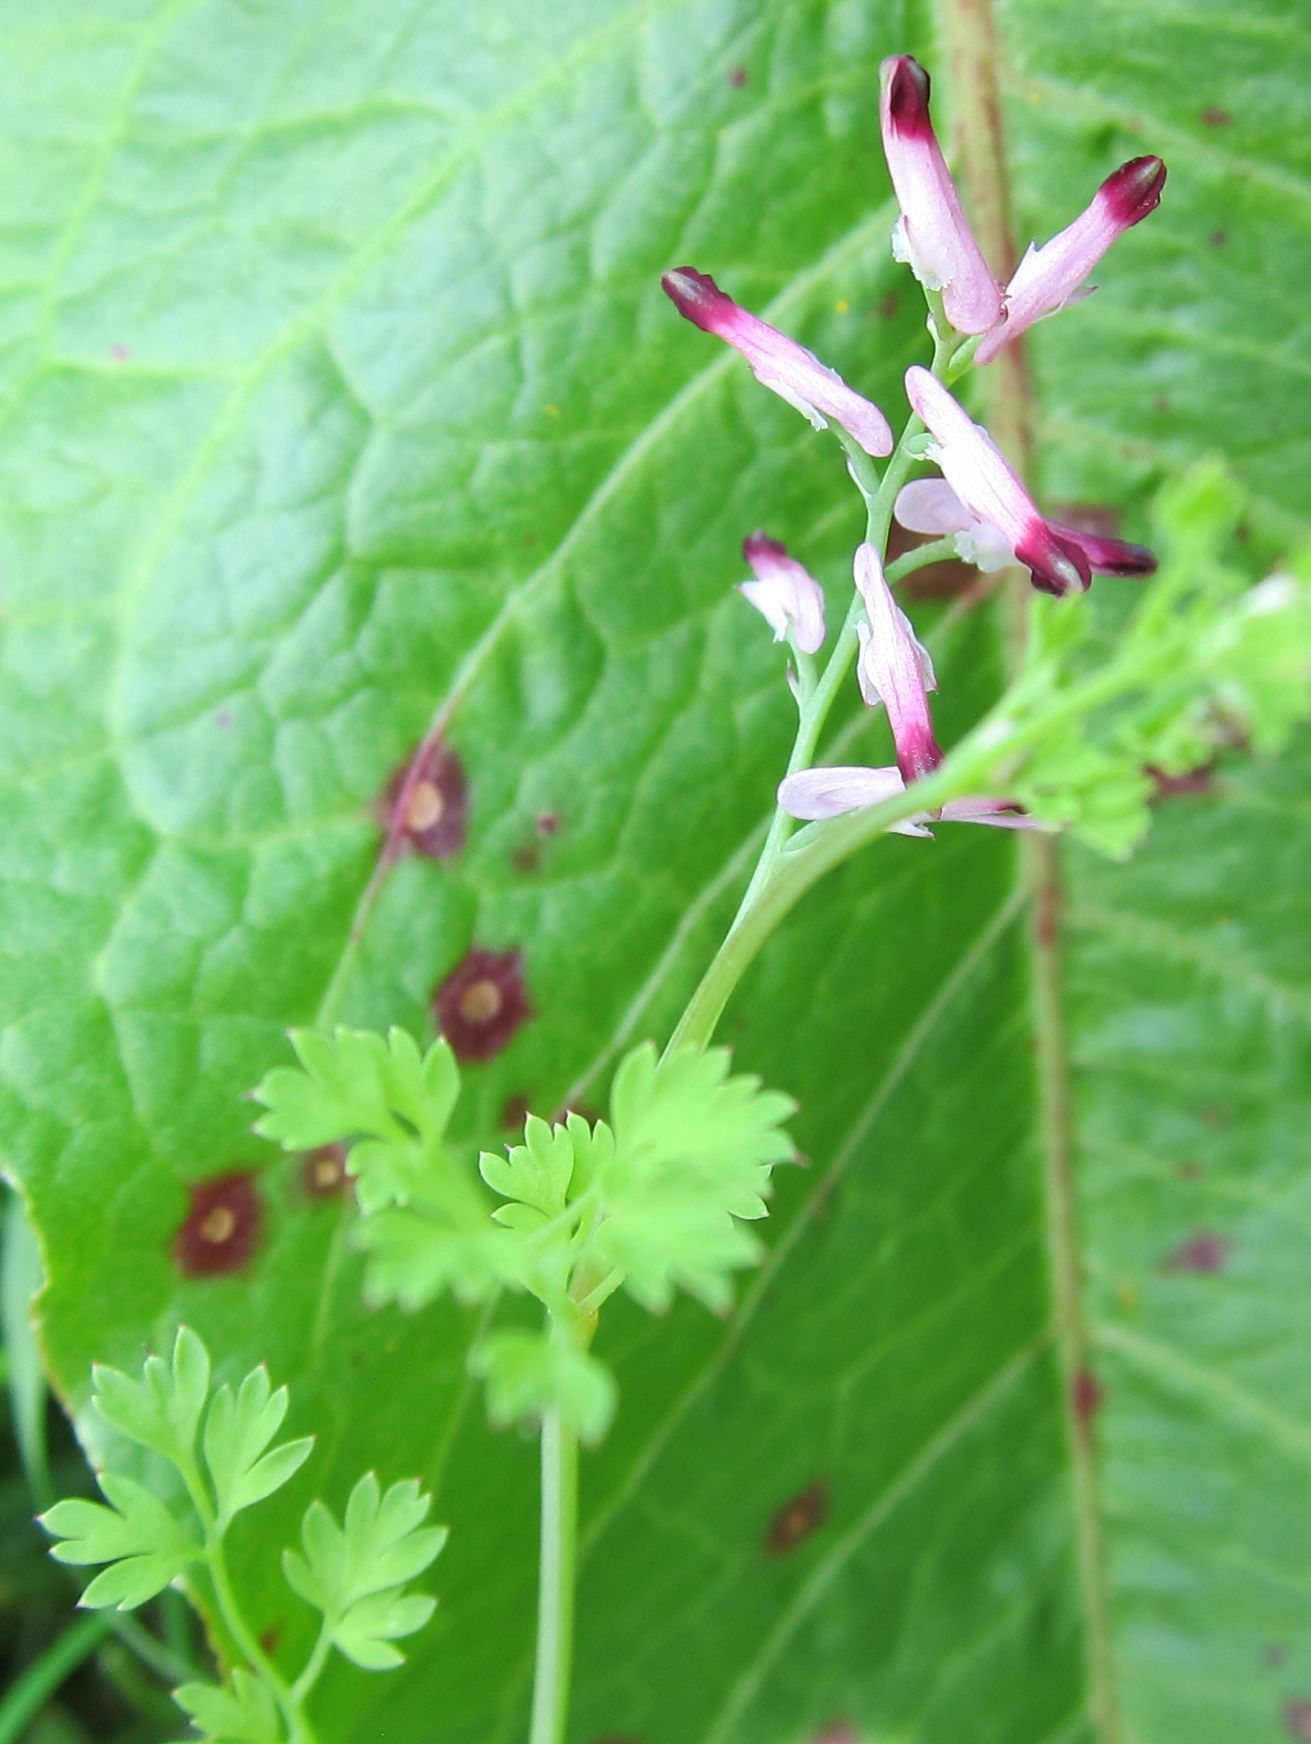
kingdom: Plantae
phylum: Tracheophyta
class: Magnoliopsida
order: Ranunculales
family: Papaveraceae
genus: Fumaria
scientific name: Fumaria muralis
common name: Common ramping-fumitory
